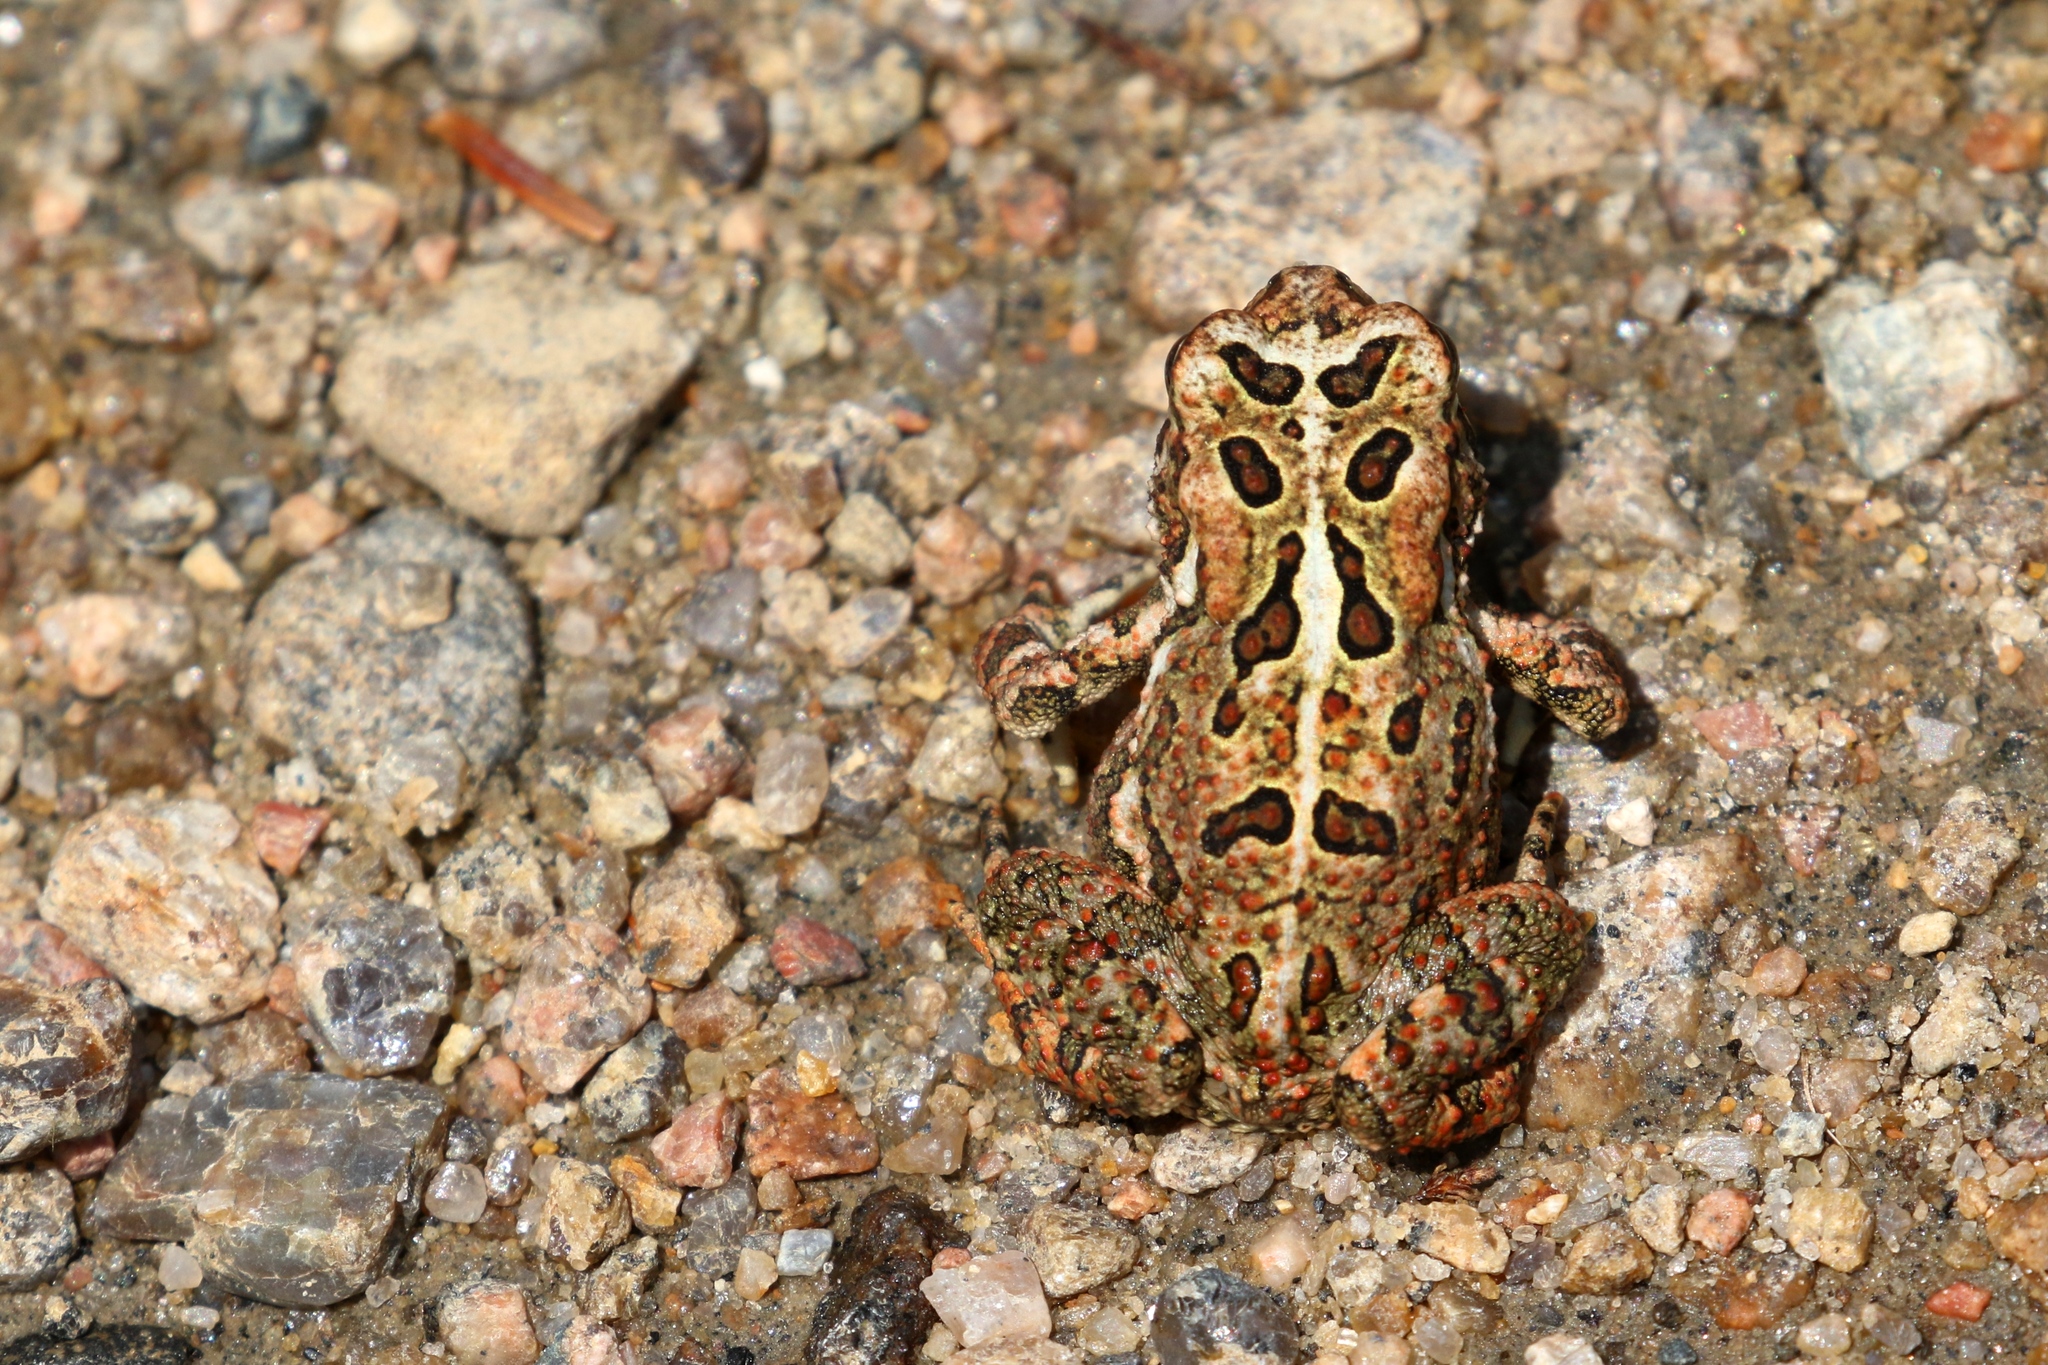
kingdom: Animalia
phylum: Chordata
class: Amphibia
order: Anura
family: Bufonidae
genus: Anaxyrus
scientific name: Anaxyrus americanus
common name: American toad
